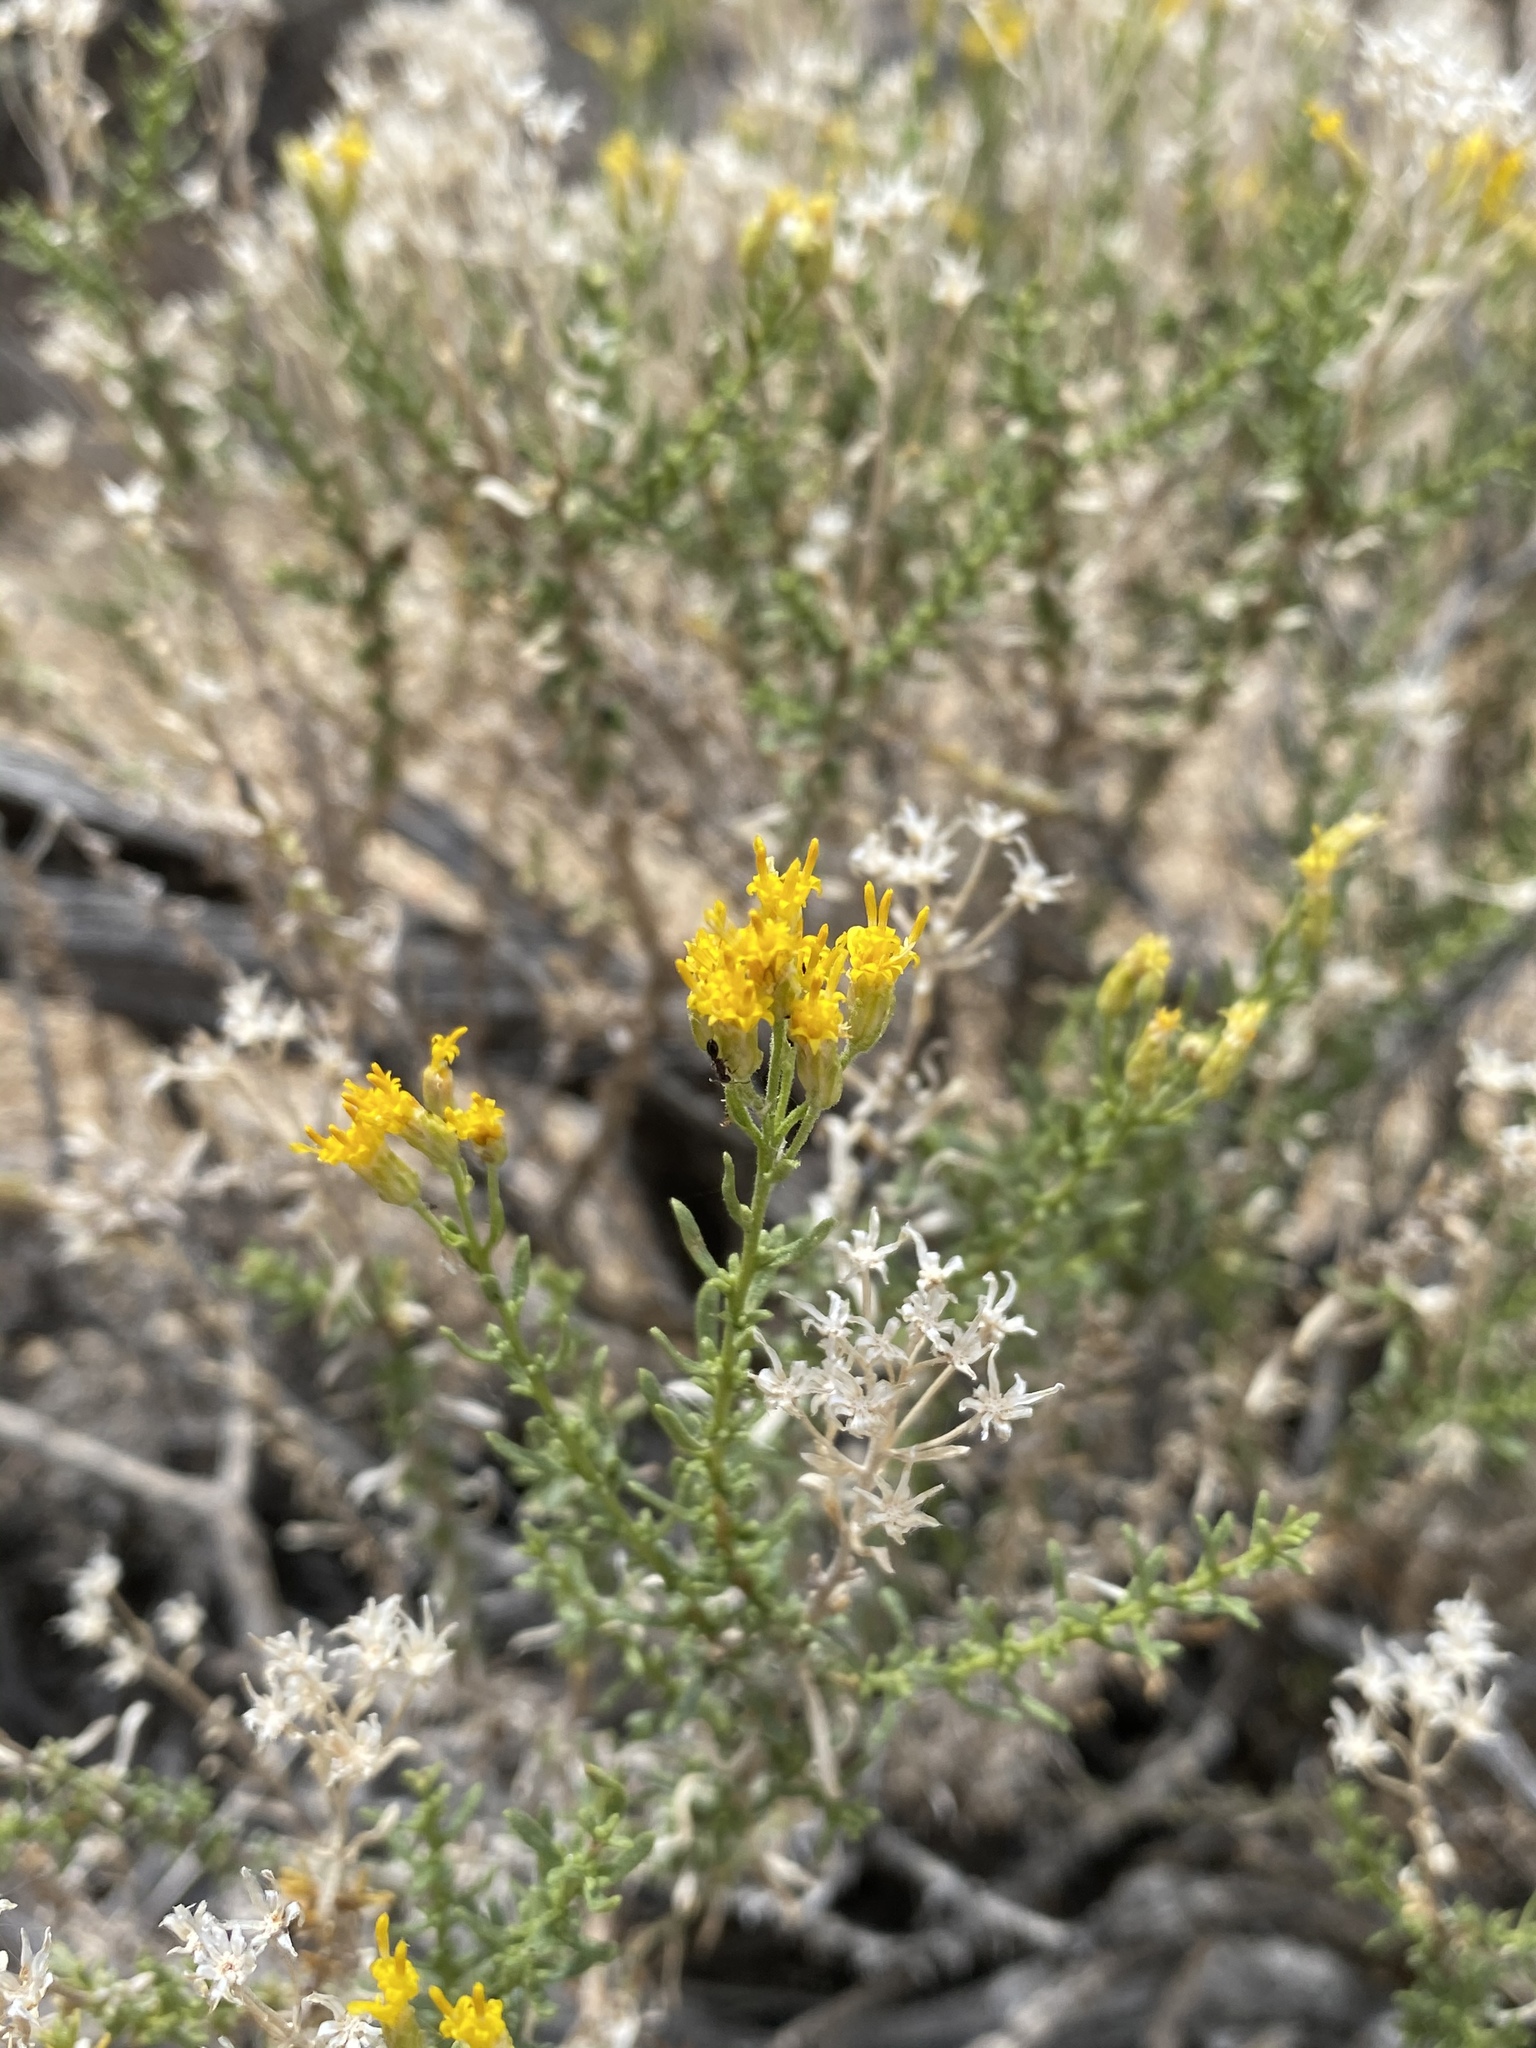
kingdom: Plantae
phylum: Tracheophyta
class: Magnoliopsida
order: Asterales
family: Asteraceae
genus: Ericameria
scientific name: Ericameria cooperi
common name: Cooper's goldenbush
